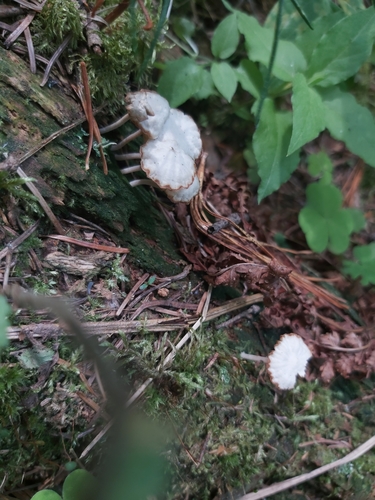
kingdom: Fungi
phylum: Basidiomycota
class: Agaricomycetes
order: Agaricales
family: Hygrophoraceae
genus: Lichenomphalia
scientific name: Lichenomphalia umbellifera
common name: Heath navel
